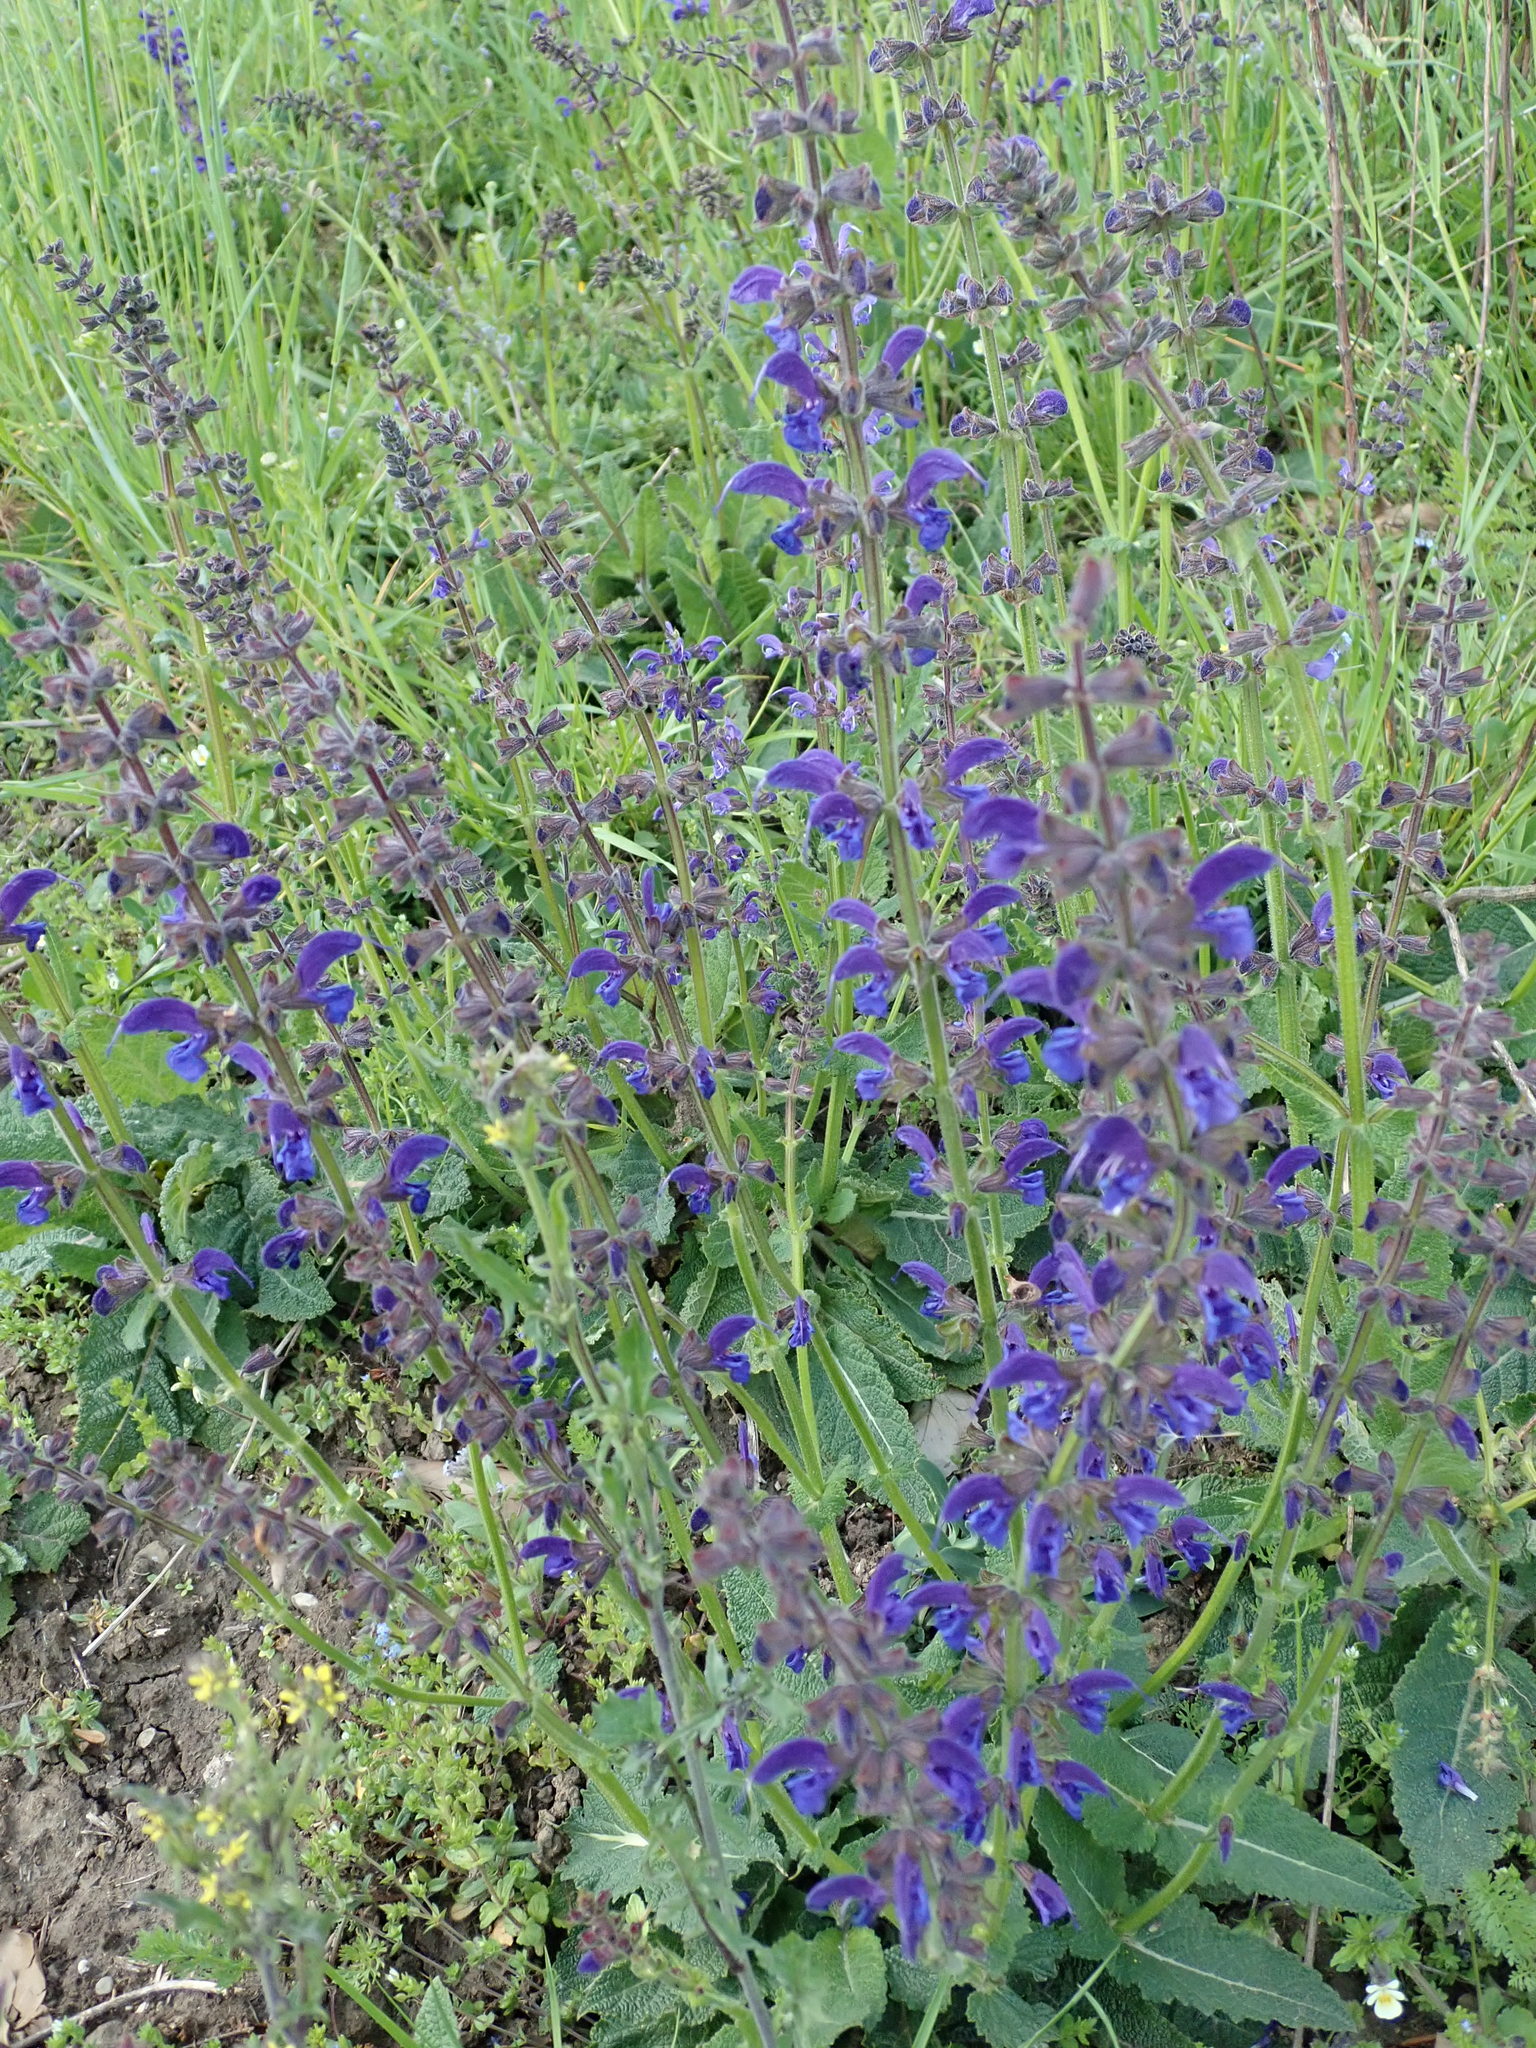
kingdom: Plantae
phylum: Tracheophyta
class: Magnoliopsida
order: Lamiales
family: Lamiaceae
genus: Salvia
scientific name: Salvia pratensis
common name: Meadow sage
